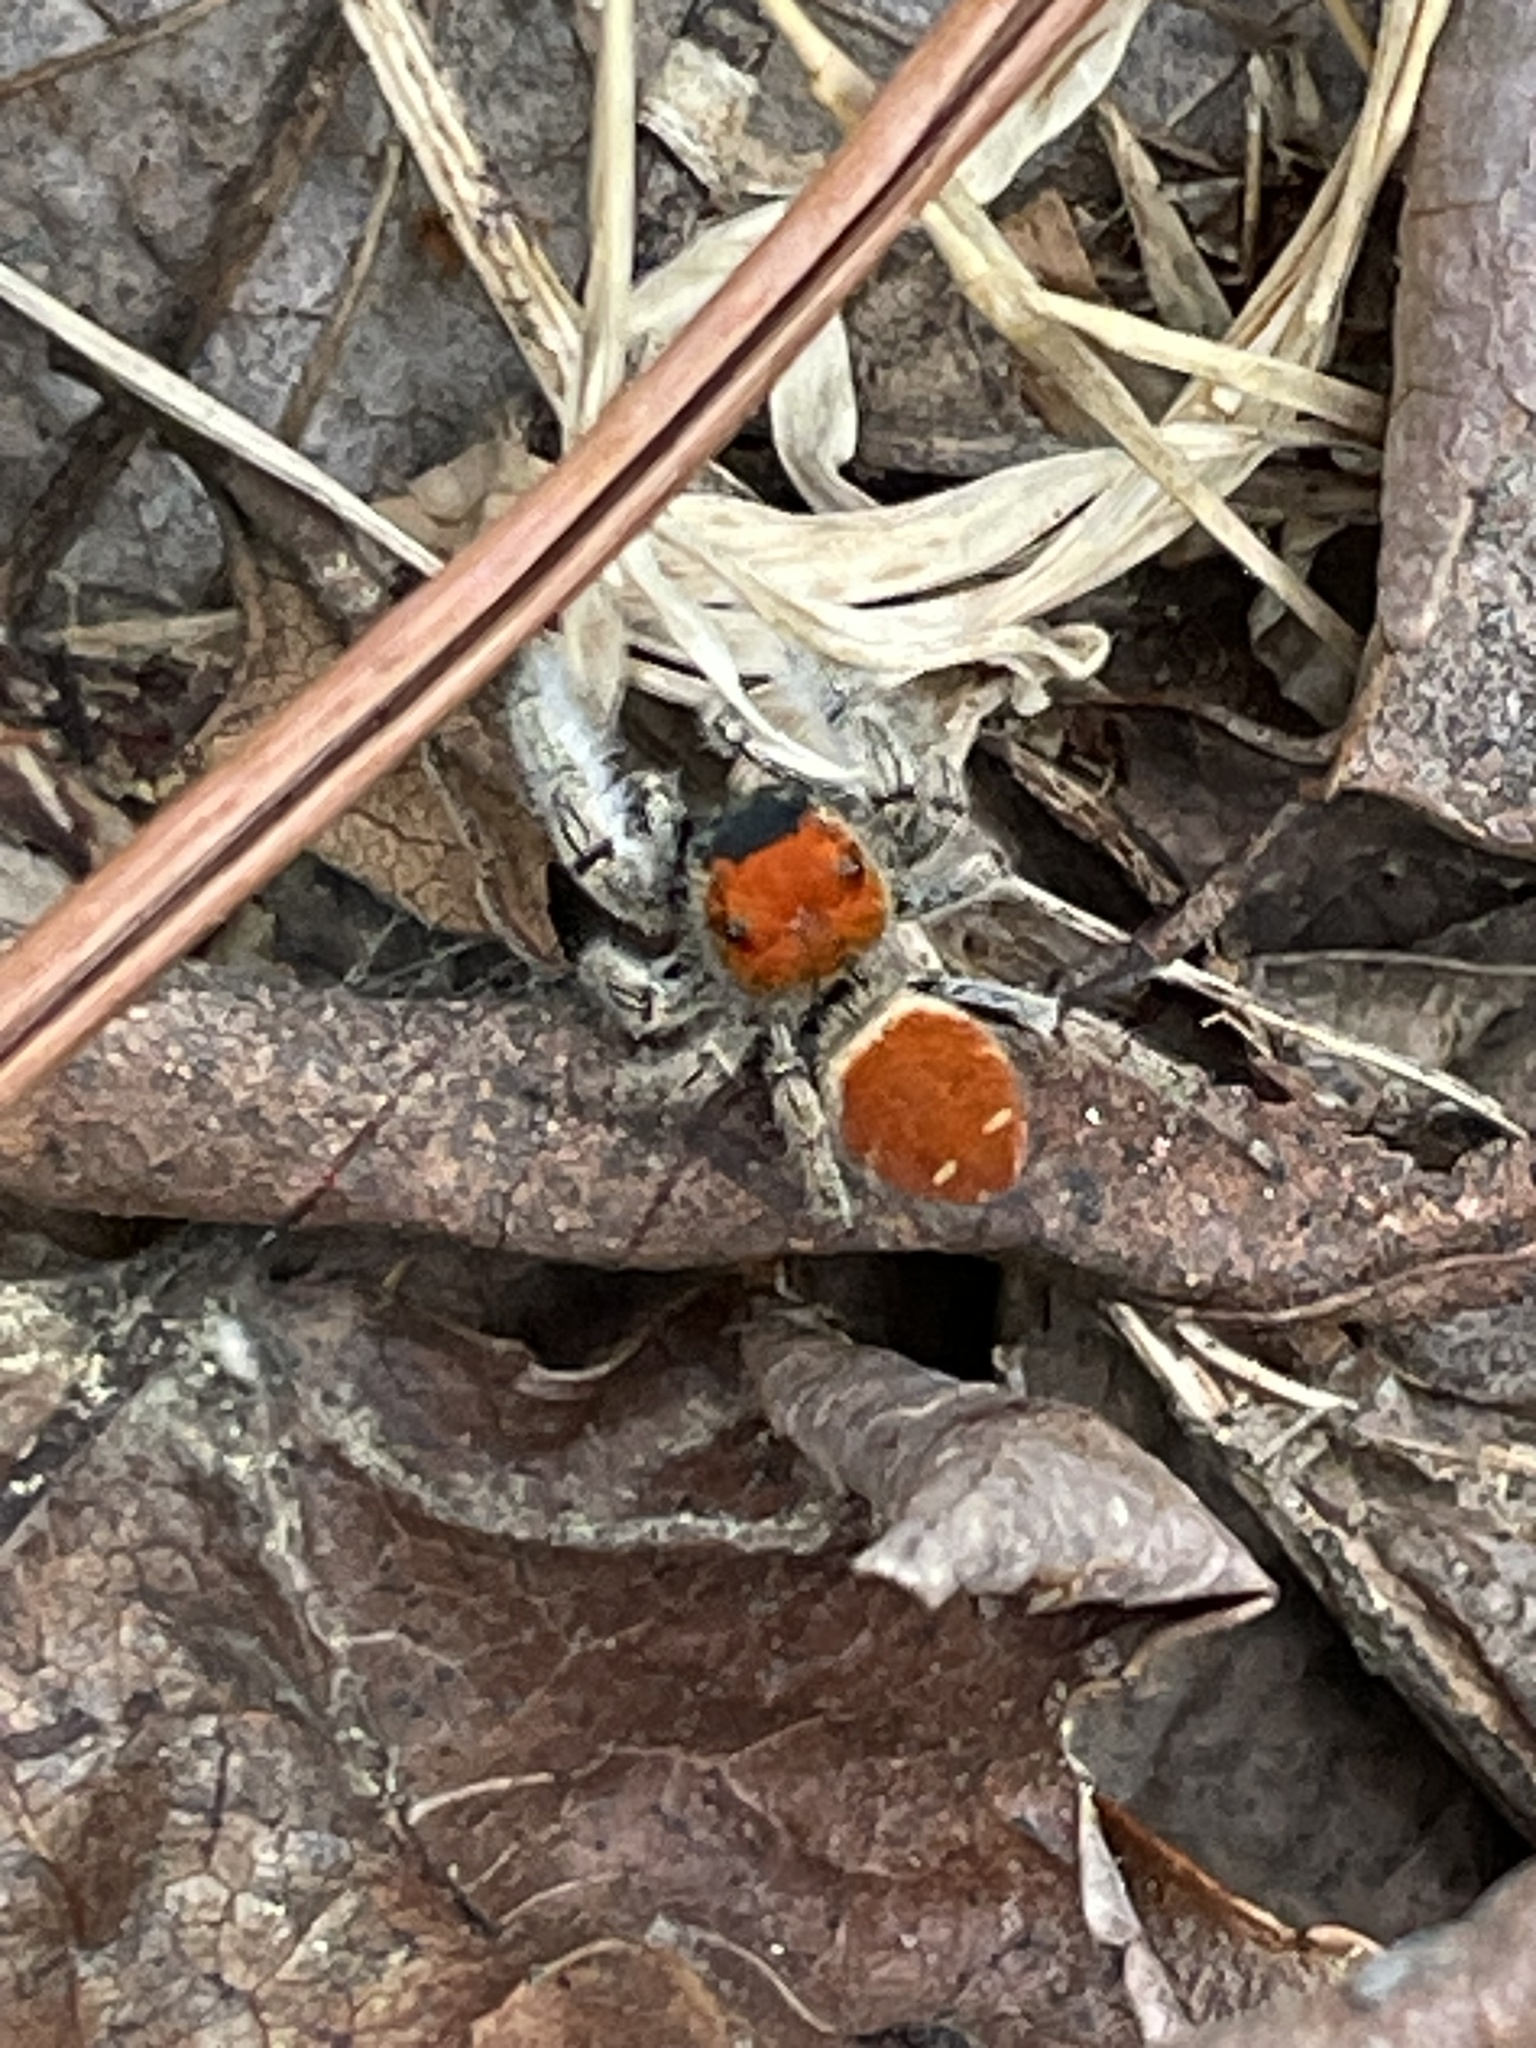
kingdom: Animalia
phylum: Arthropoda
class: Arachnida
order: Araneae
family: Salticidae
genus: Phidippus
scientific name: Phidippus whitmani
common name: Whitman's jumping spider
